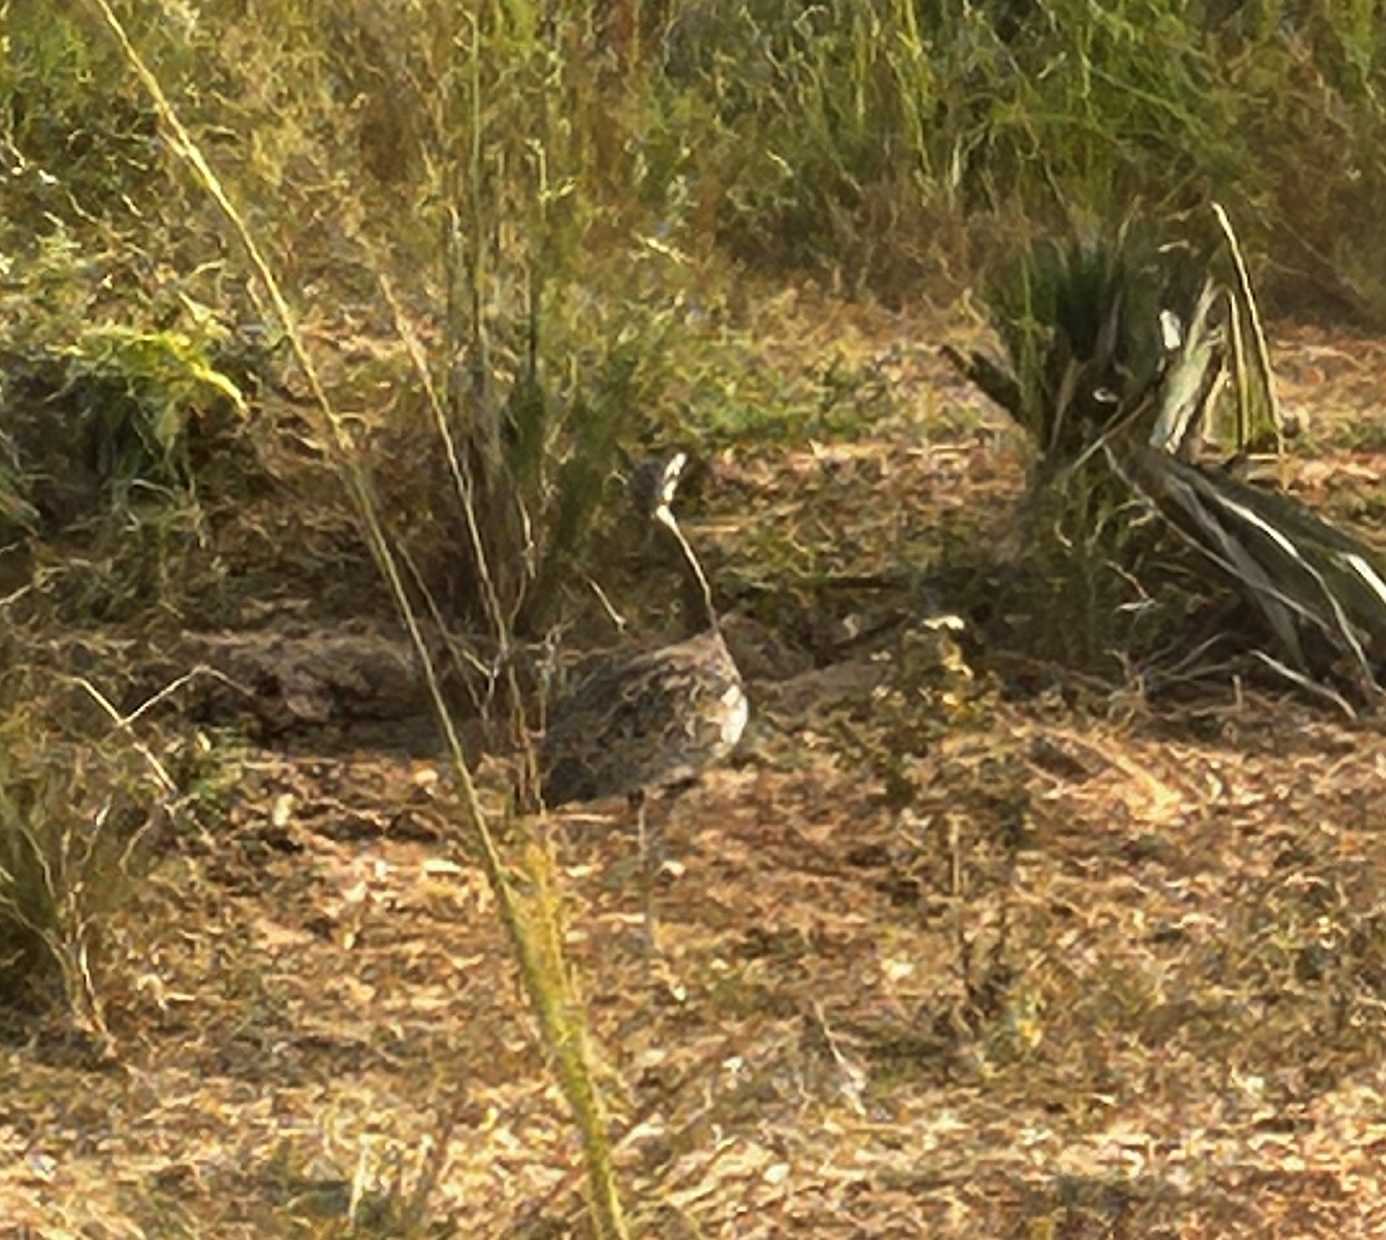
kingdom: Animalia
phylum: Chordata
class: Aves
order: Otidiformes
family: Otididae
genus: Lissotis
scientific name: Lissotis melanogaster
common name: Black-bellied bustard
